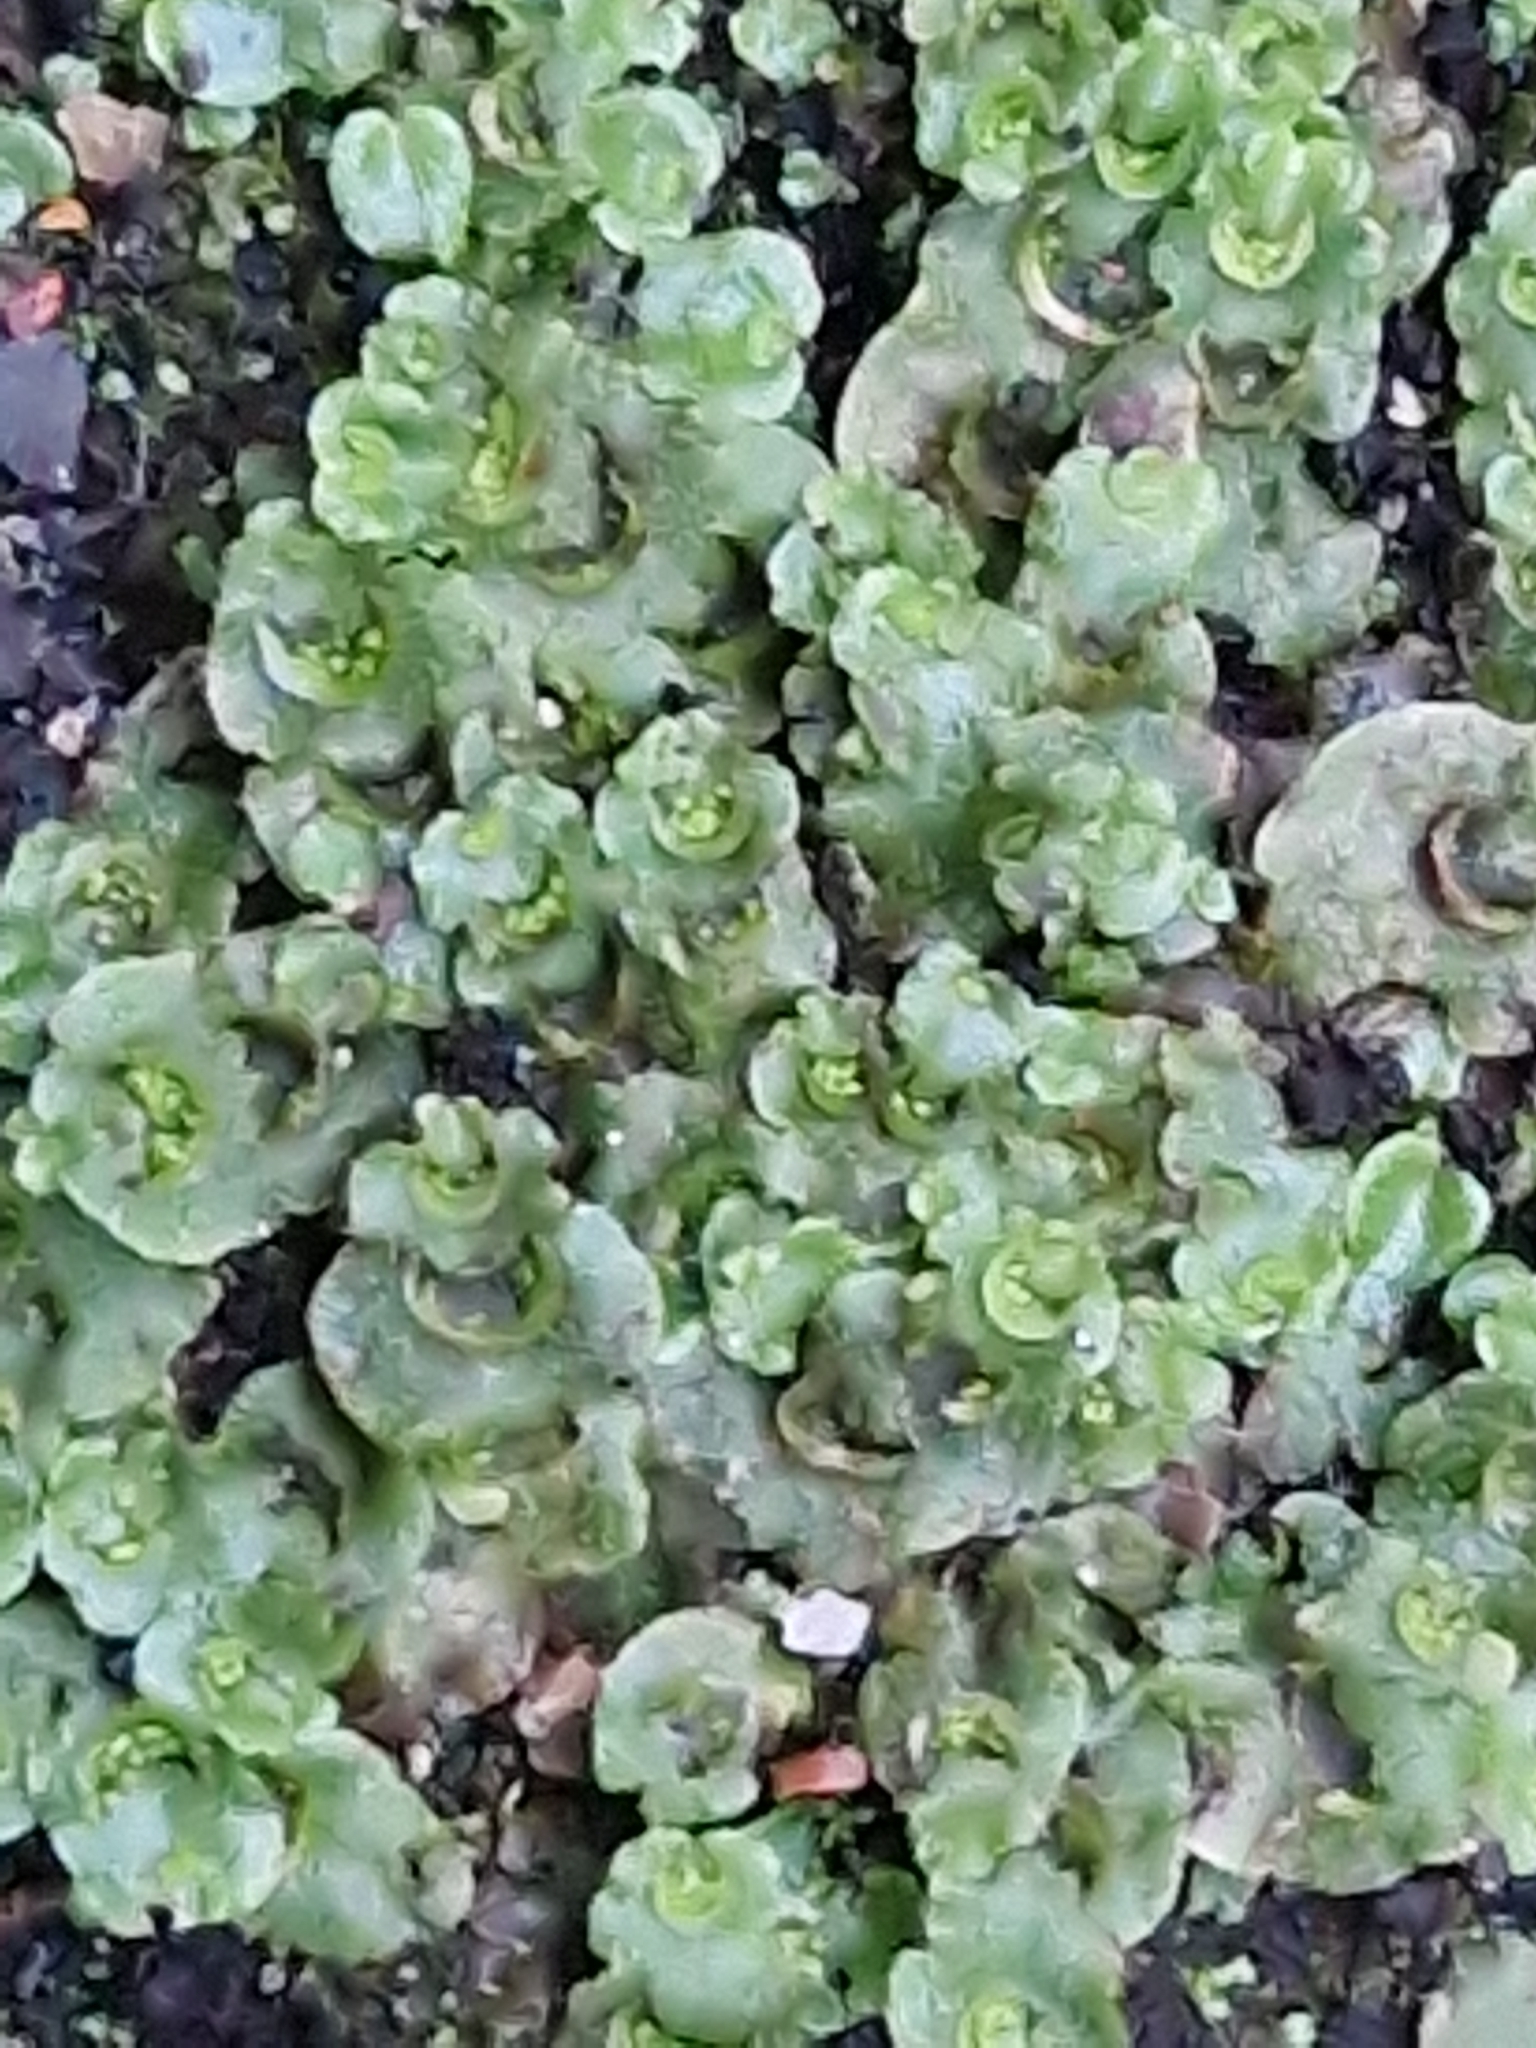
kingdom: Plantae
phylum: Marchantiophyta
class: Marchantiopsida
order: Lunulariales
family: Lunulariaceae
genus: Lunularia
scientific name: Lunularia cruciata
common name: Crescent-cup liverwort
